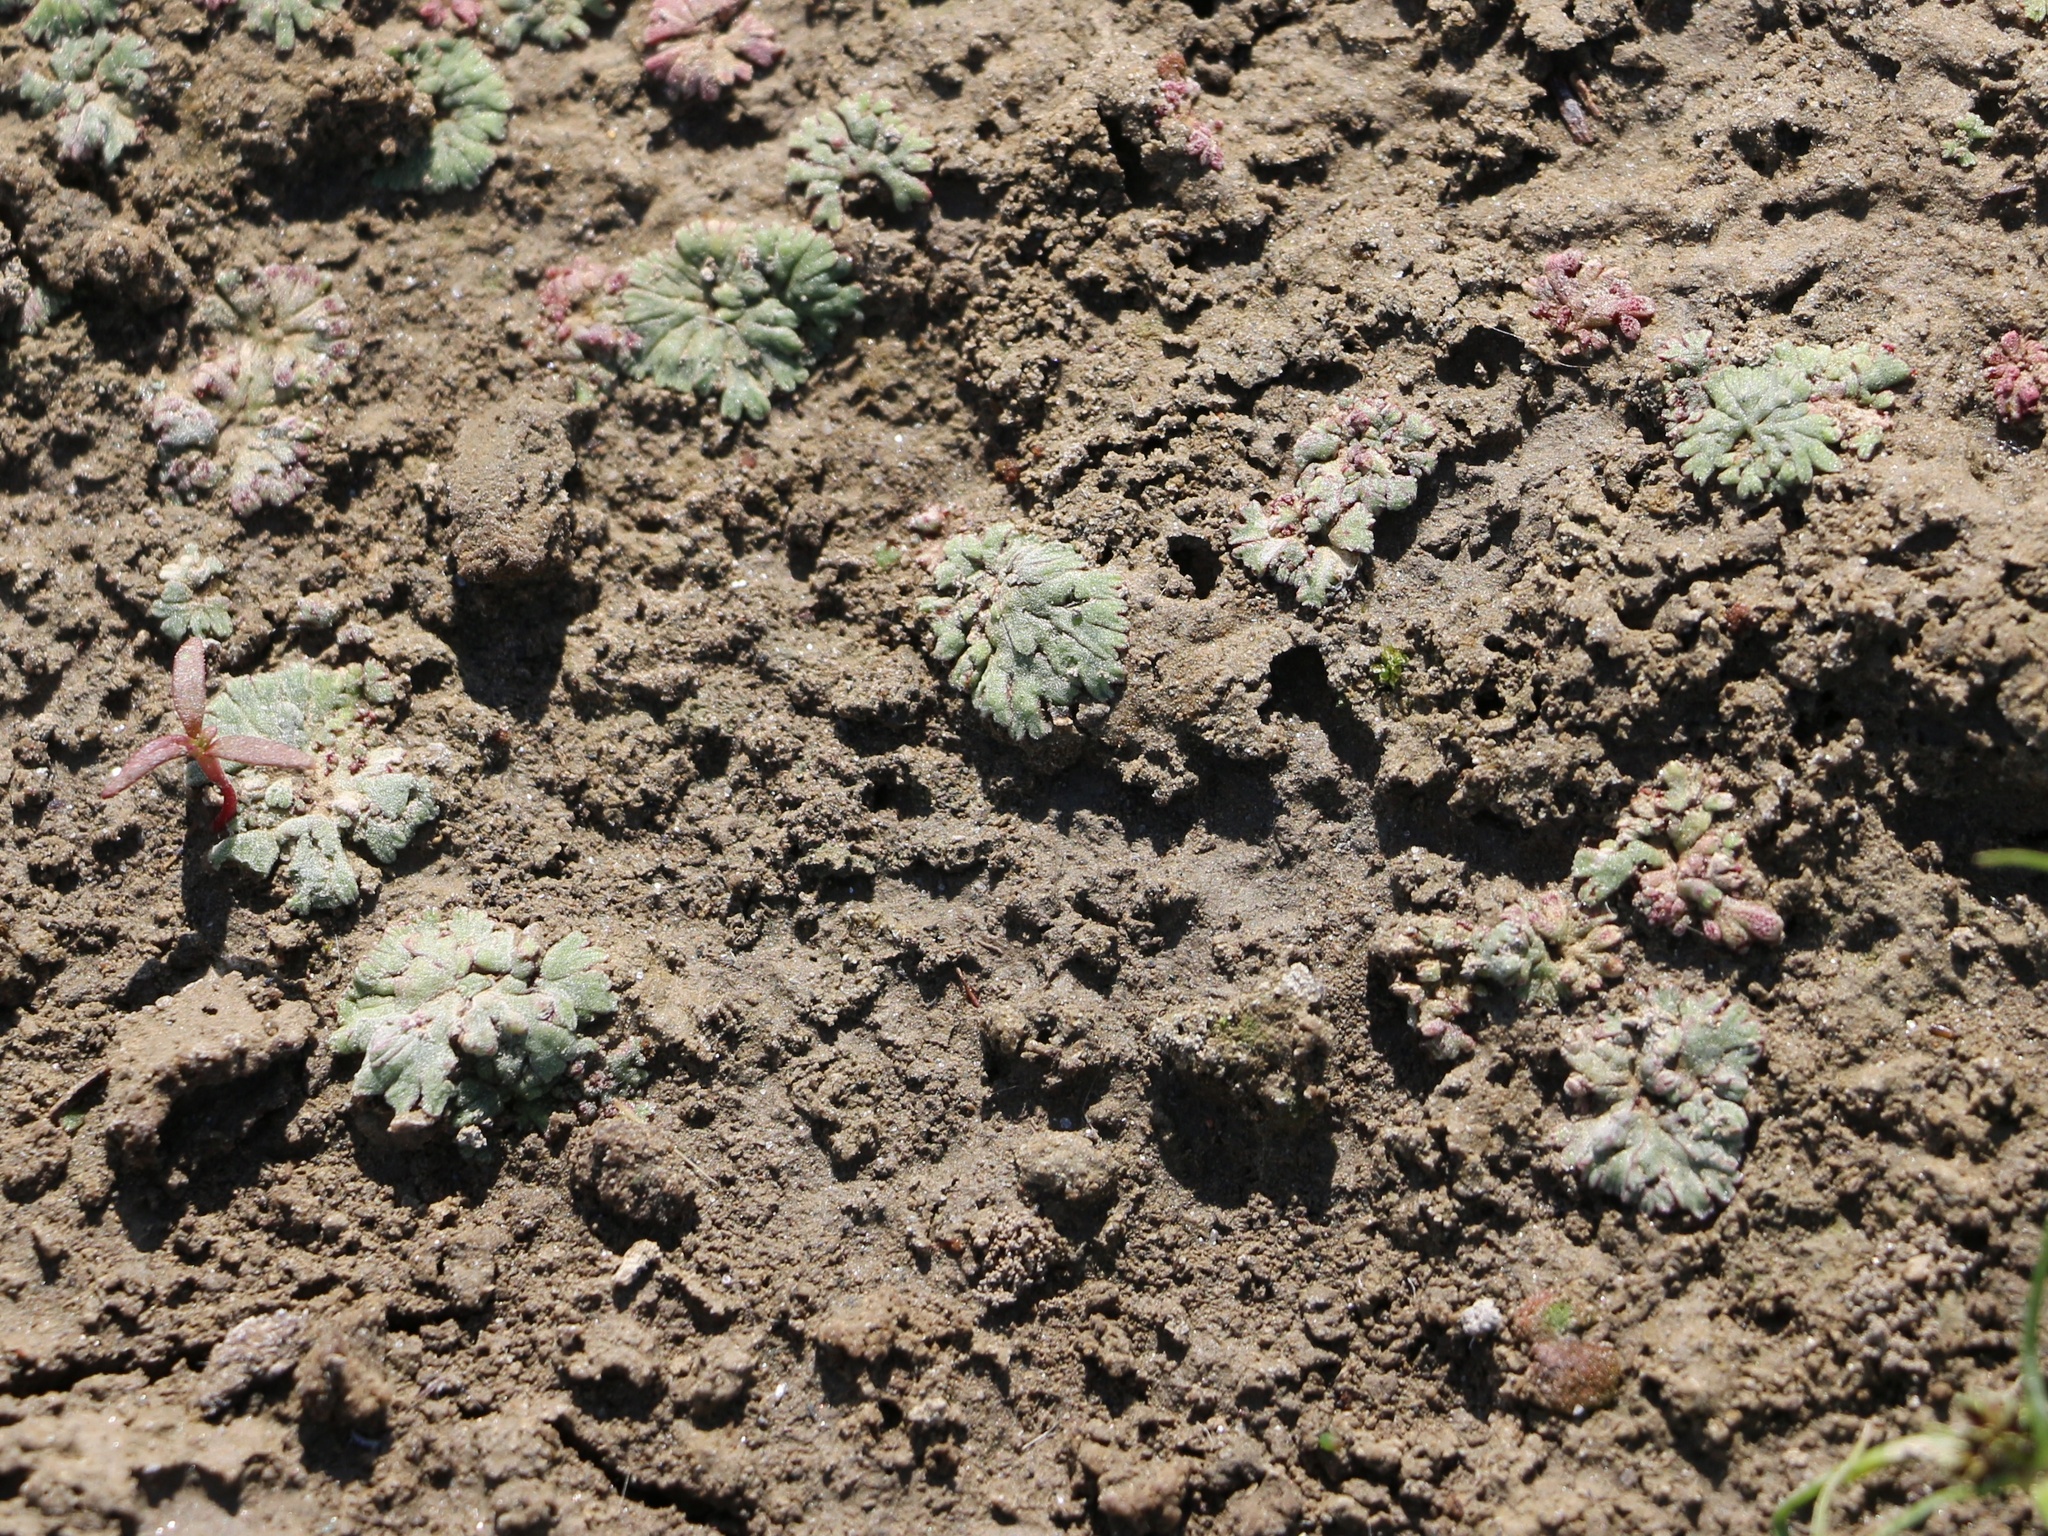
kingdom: Plantae
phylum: Marchantiophyta
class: Marchantiopsida
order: Marchantiales
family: Ricciaceae
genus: Riccia
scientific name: Riccia frostii
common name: Frost s crystalwort
